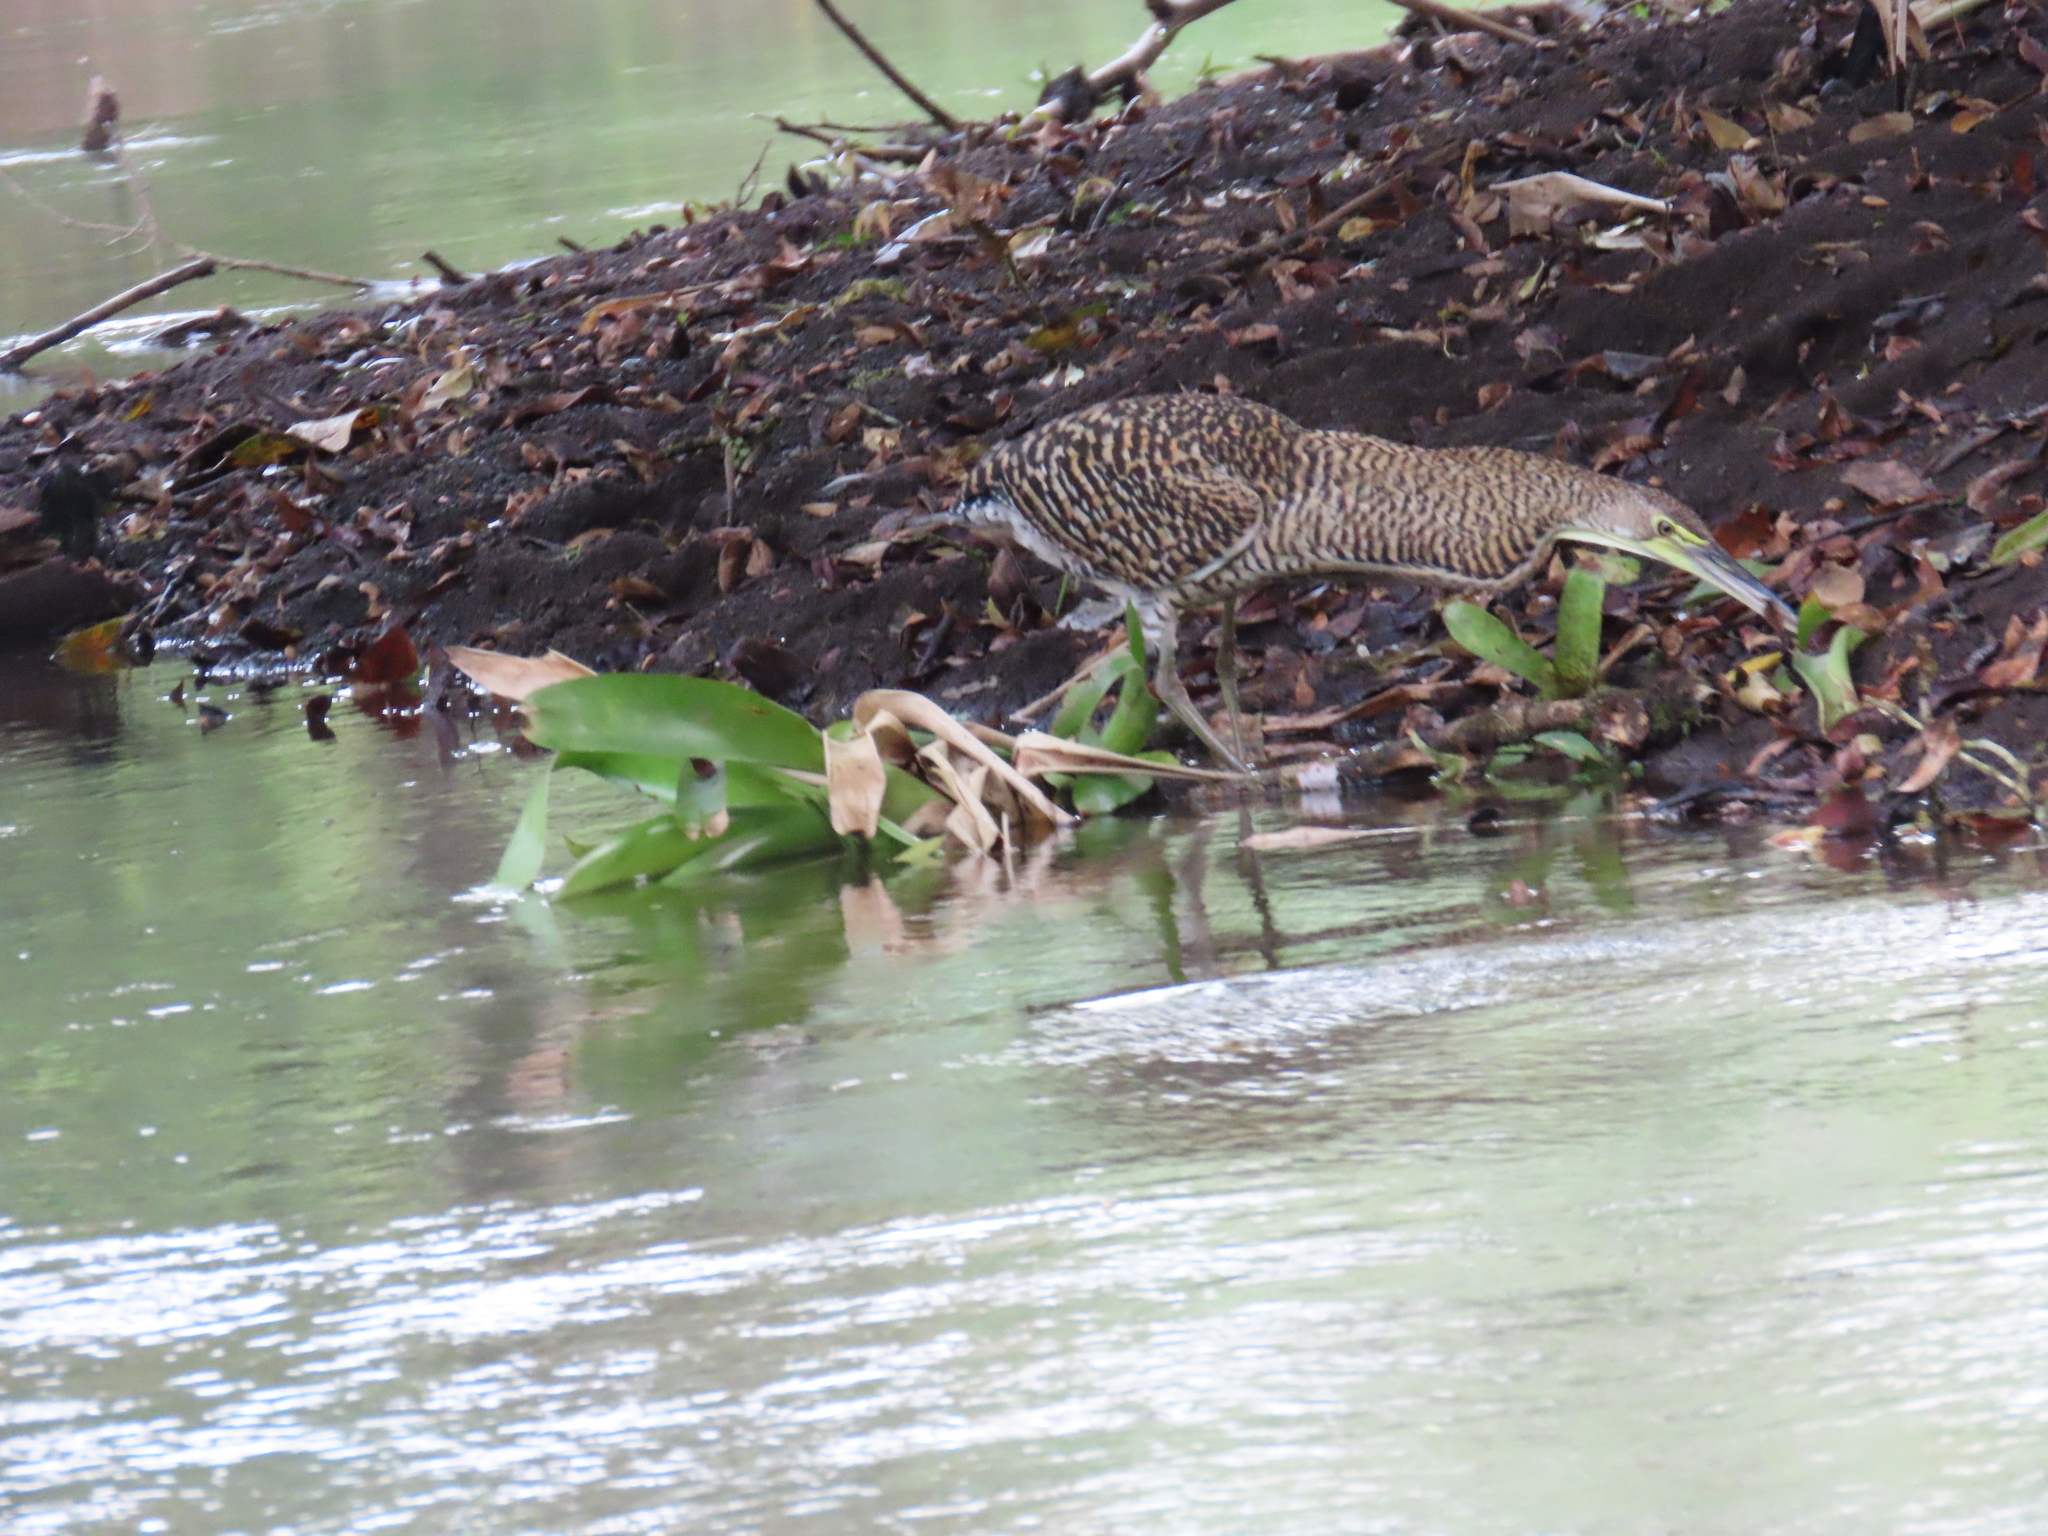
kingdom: Animalia
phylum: Chordata
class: Aves
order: Pelecaniformes
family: Ardeidae
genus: Tigrisoma
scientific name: Tigrisoma mexicanum
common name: Bare-throated tiger-heron
